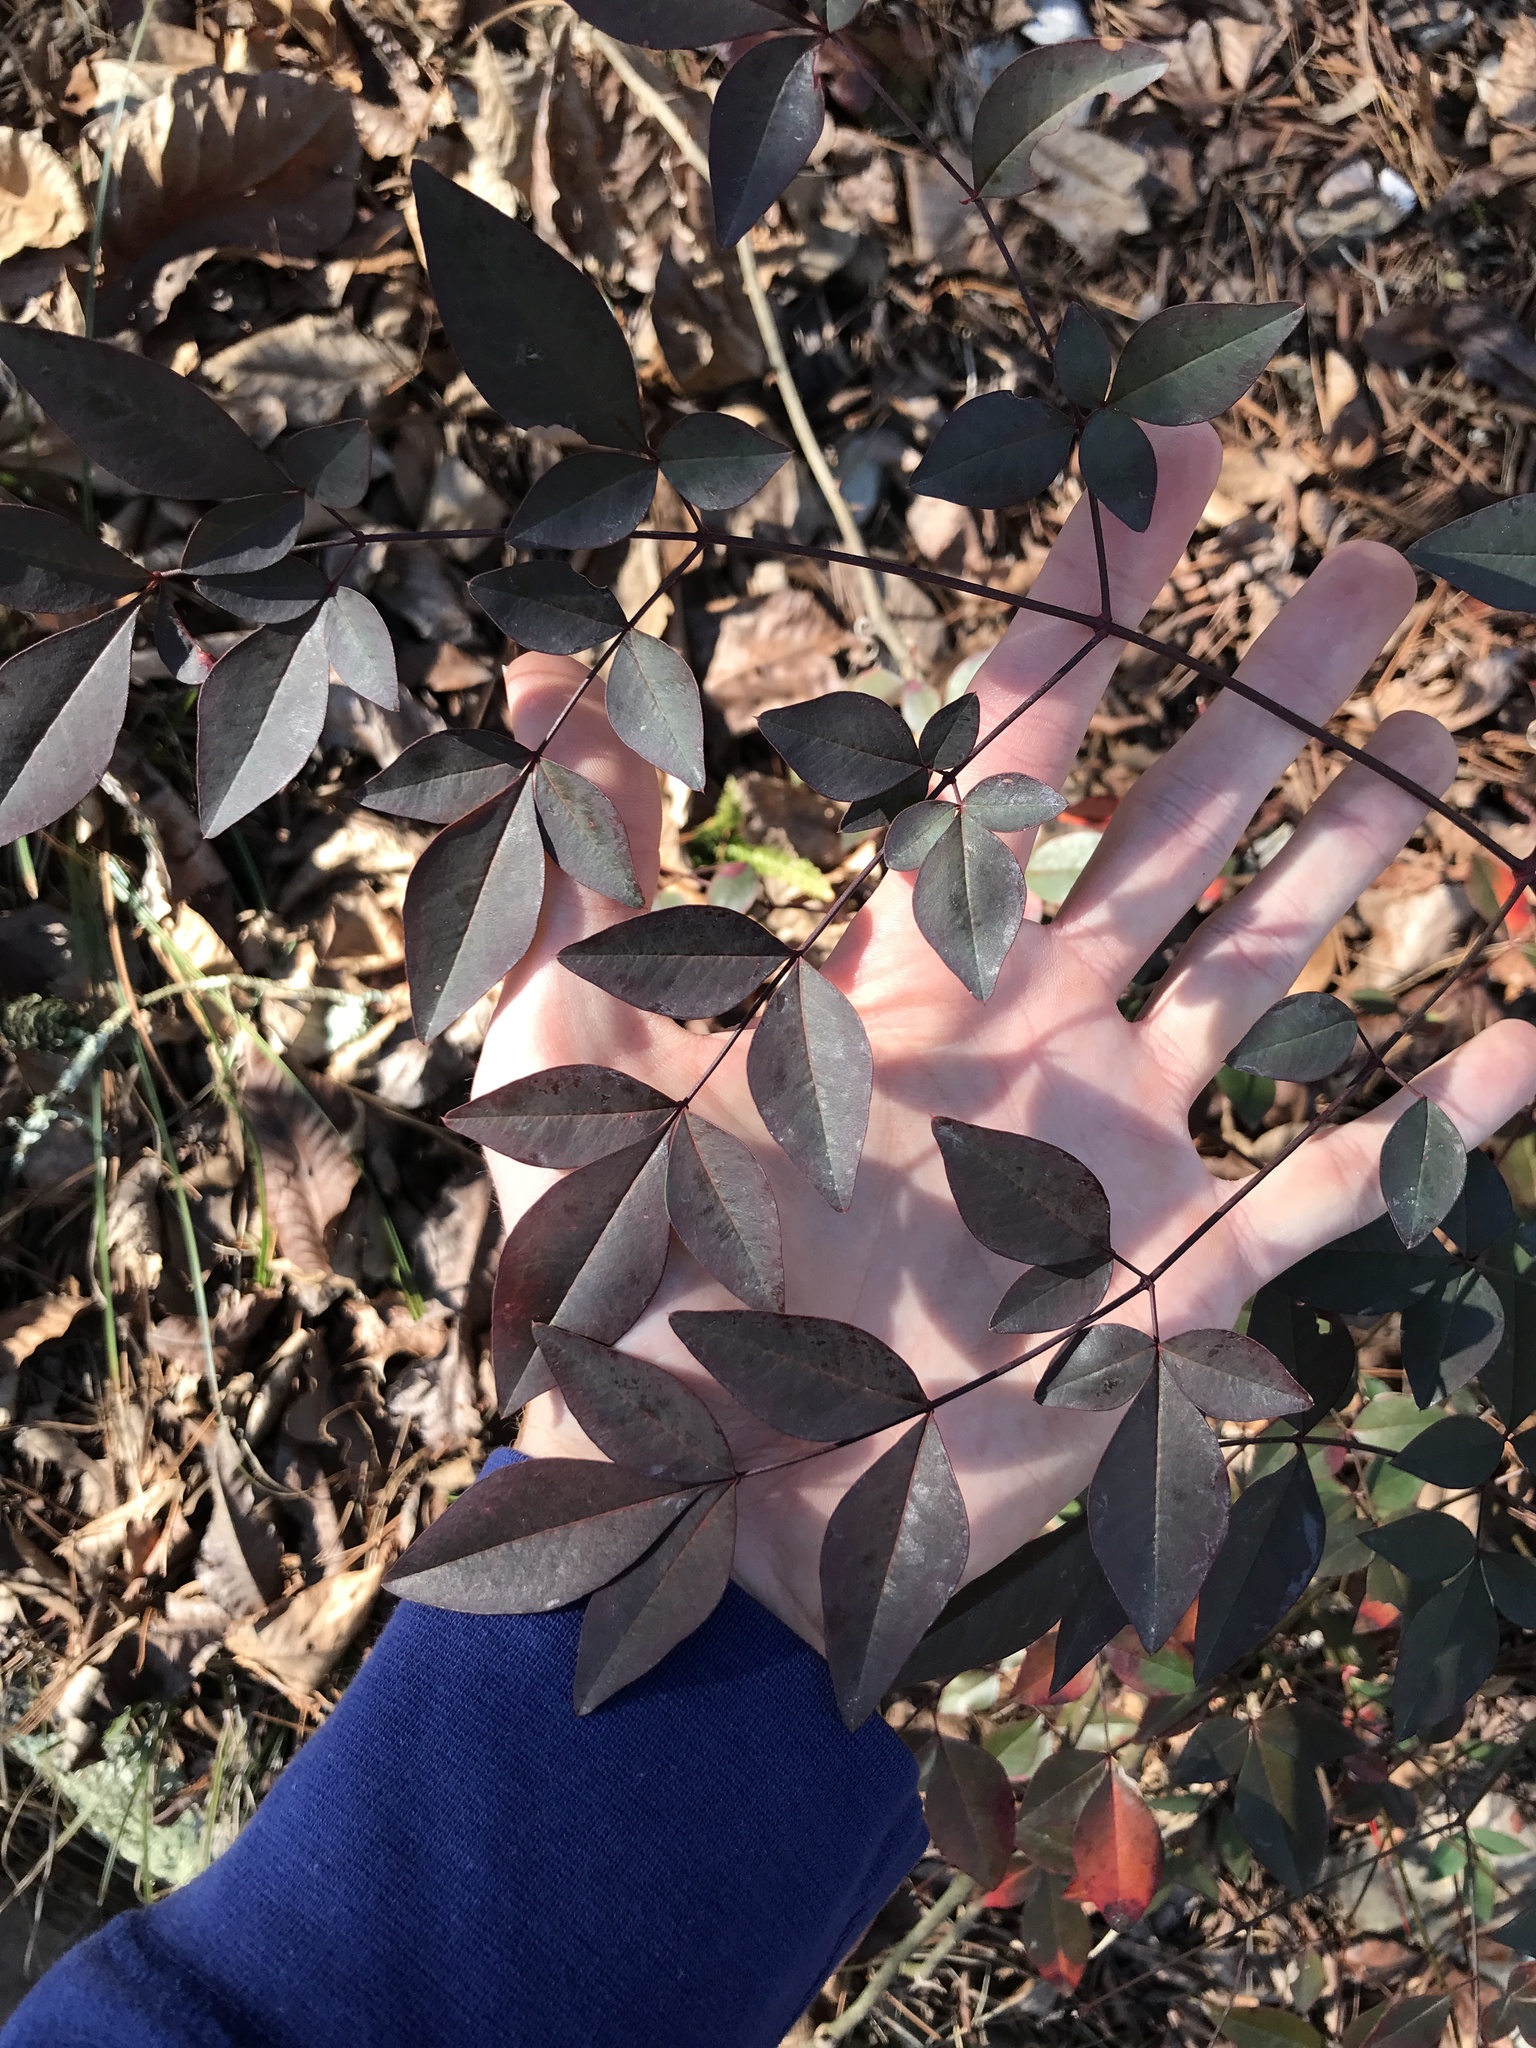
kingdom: Plantae
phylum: Tracheophyta
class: Magnoliopsida
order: Ranunculales
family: Berberidaceae
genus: Nandina
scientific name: Nandina domestica
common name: Sacred bamboo
